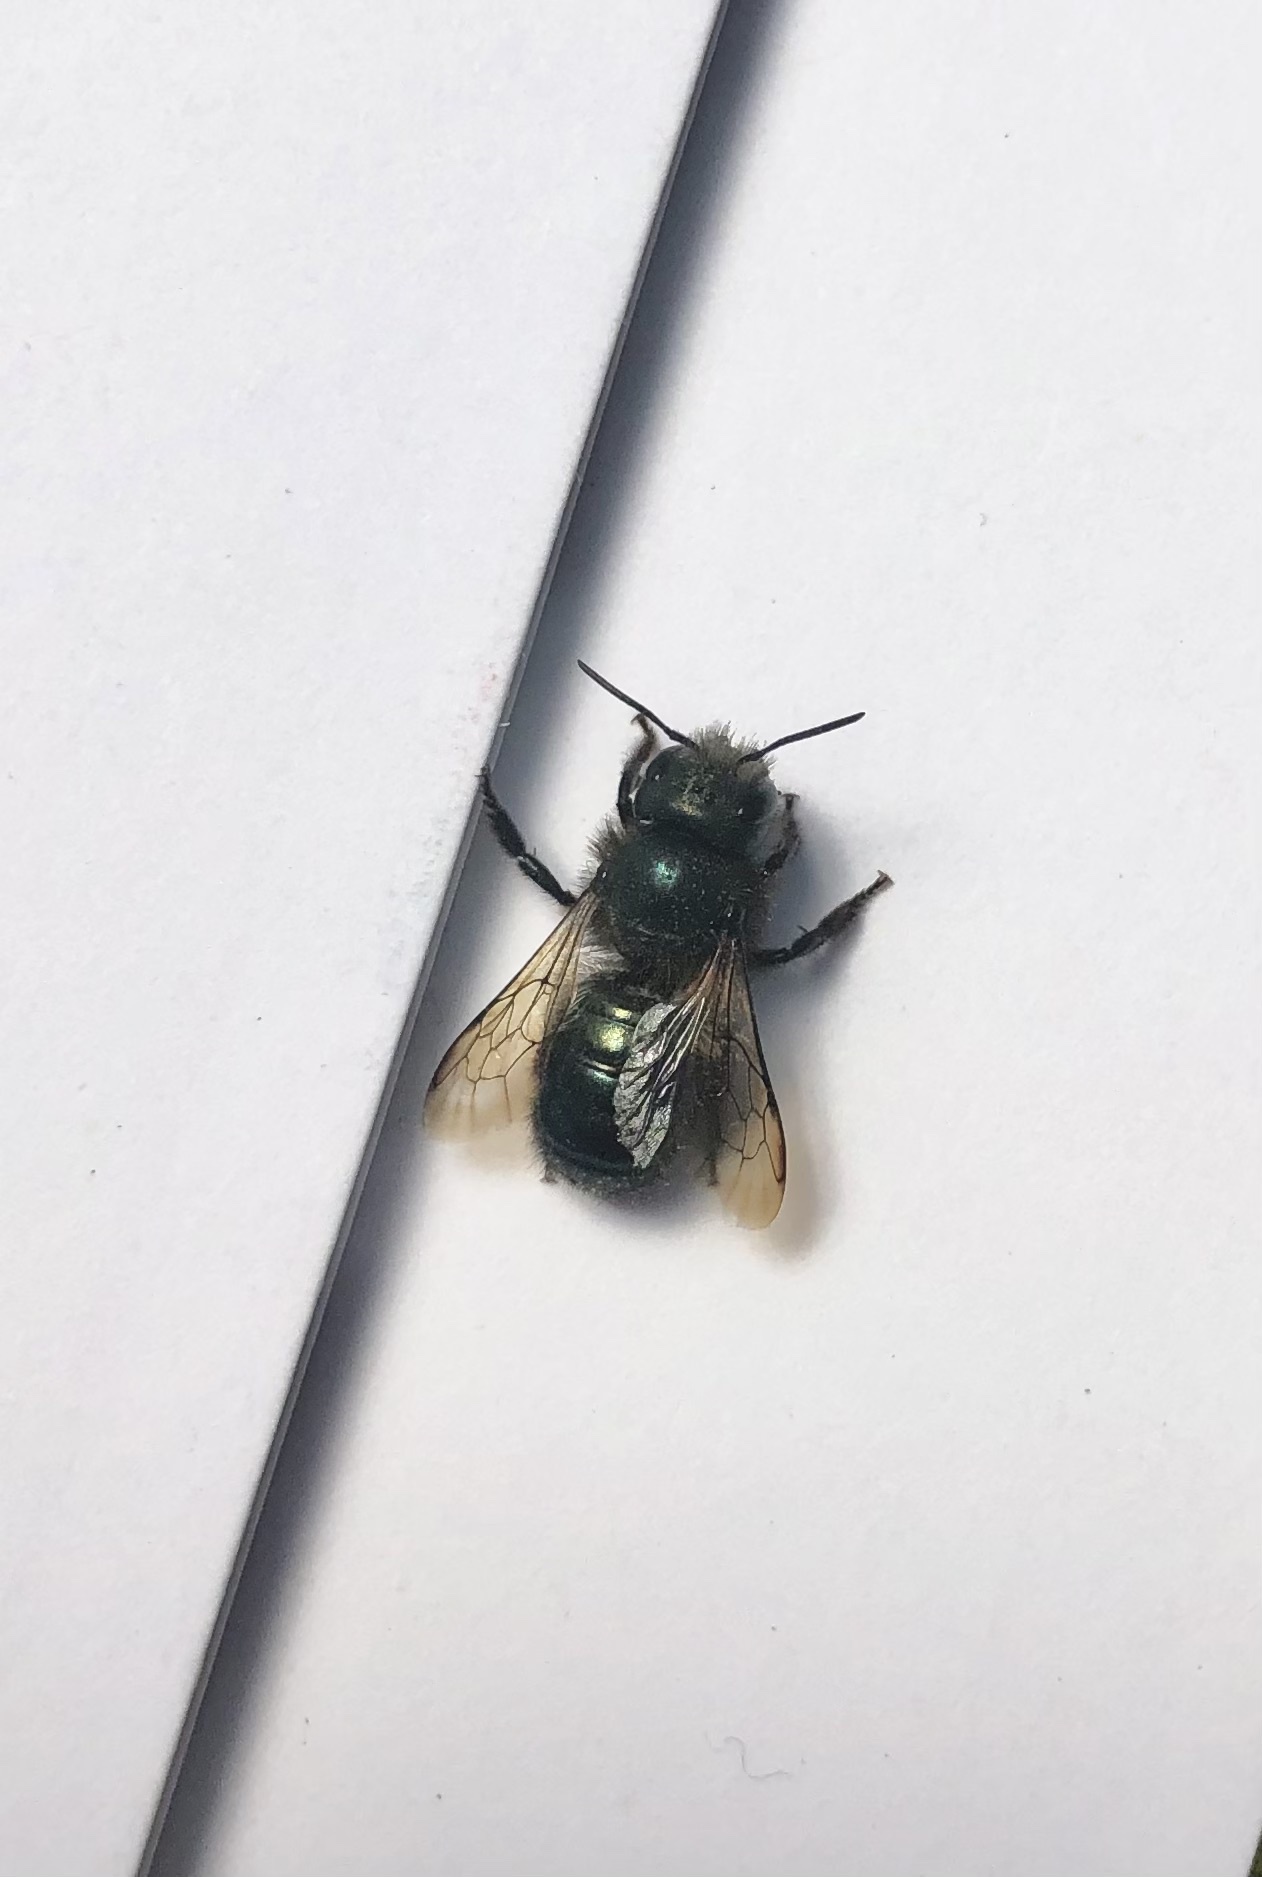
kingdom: Animalia
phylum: Arthropoda
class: Insecta
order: Hymenoptera
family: Megachilidae
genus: Osmia
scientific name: Osmia lignaria
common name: Blue orchard bee
